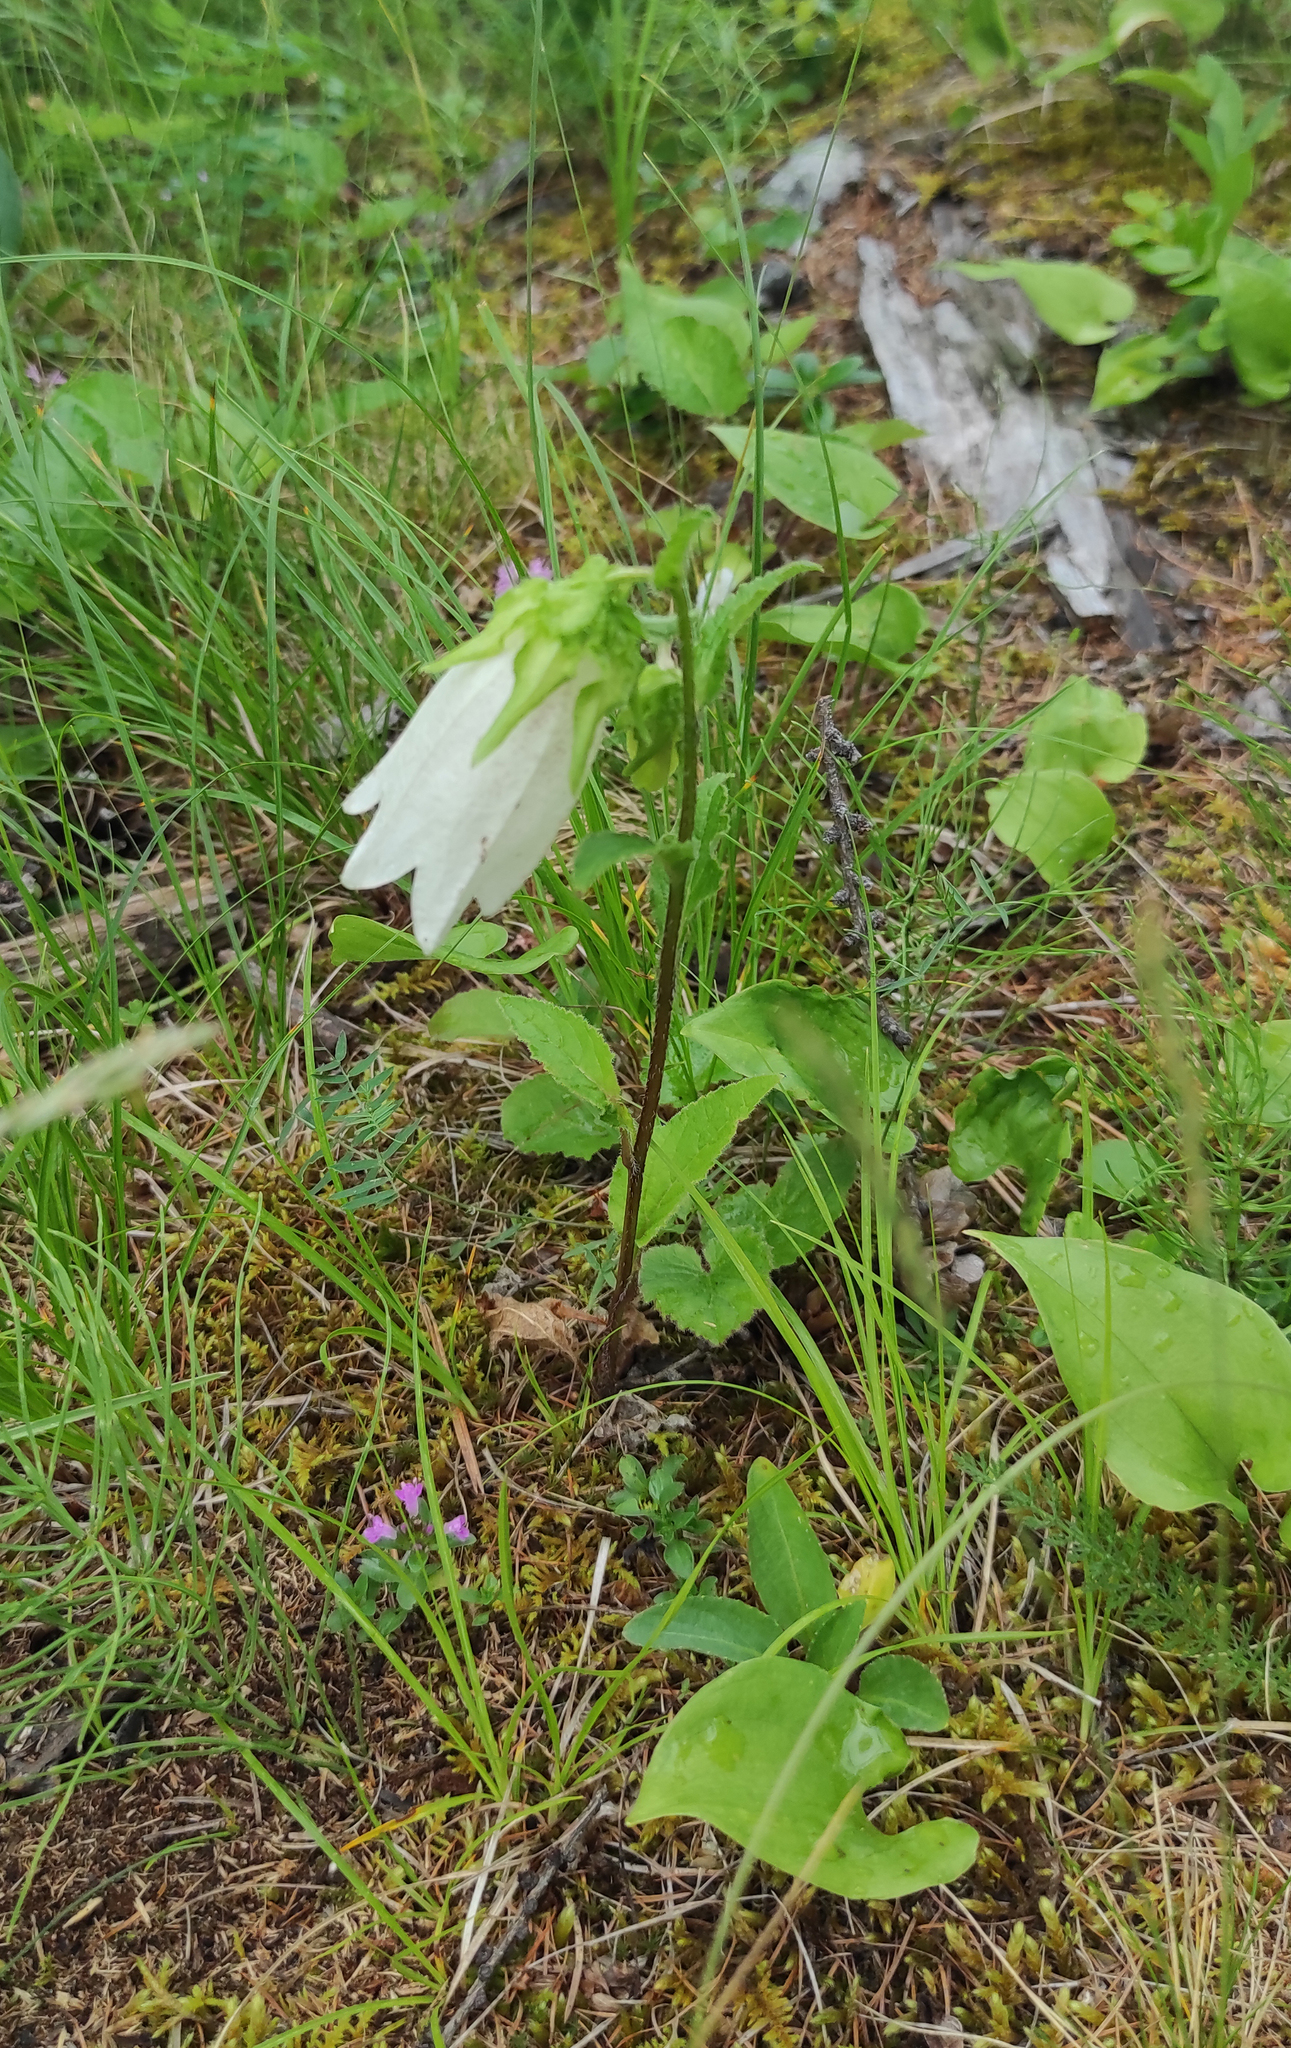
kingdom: Plantae
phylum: Tracheophyta
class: Magnoliopsida
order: Asterales
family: Campanulaceae
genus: Campanula
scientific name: Campanula punctata
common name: Spotted bellflower
